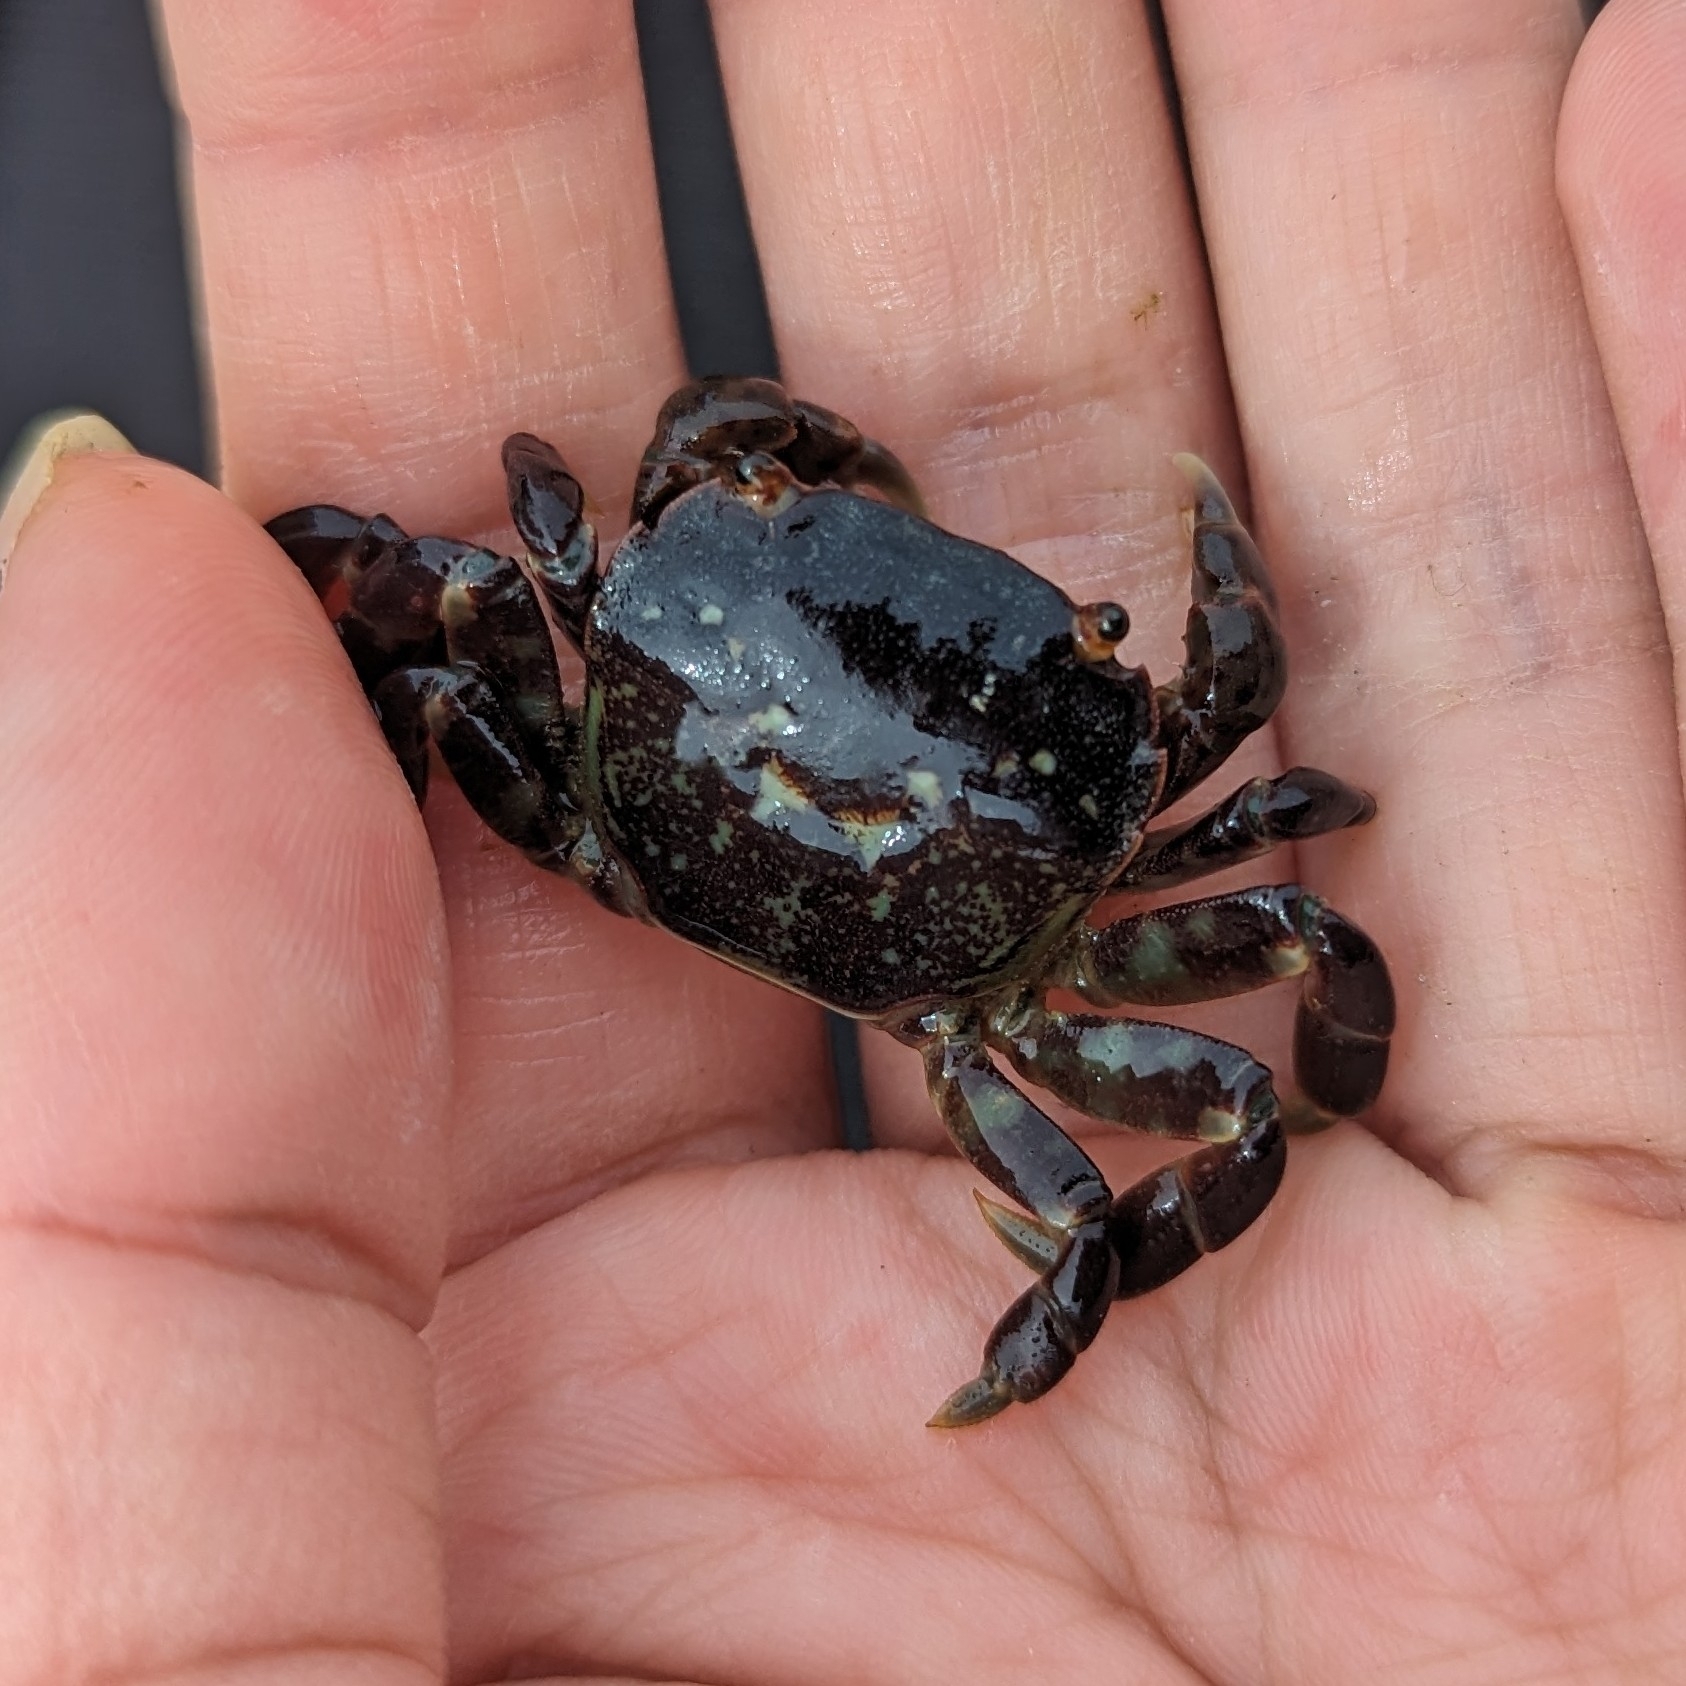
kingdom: Animalia
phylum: Arthropoda
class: Malacostraca
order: Decapoda
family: Varunidae
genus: Hemigrapsus
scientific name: Hemigrapsus nudus
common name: Purple shore crab
